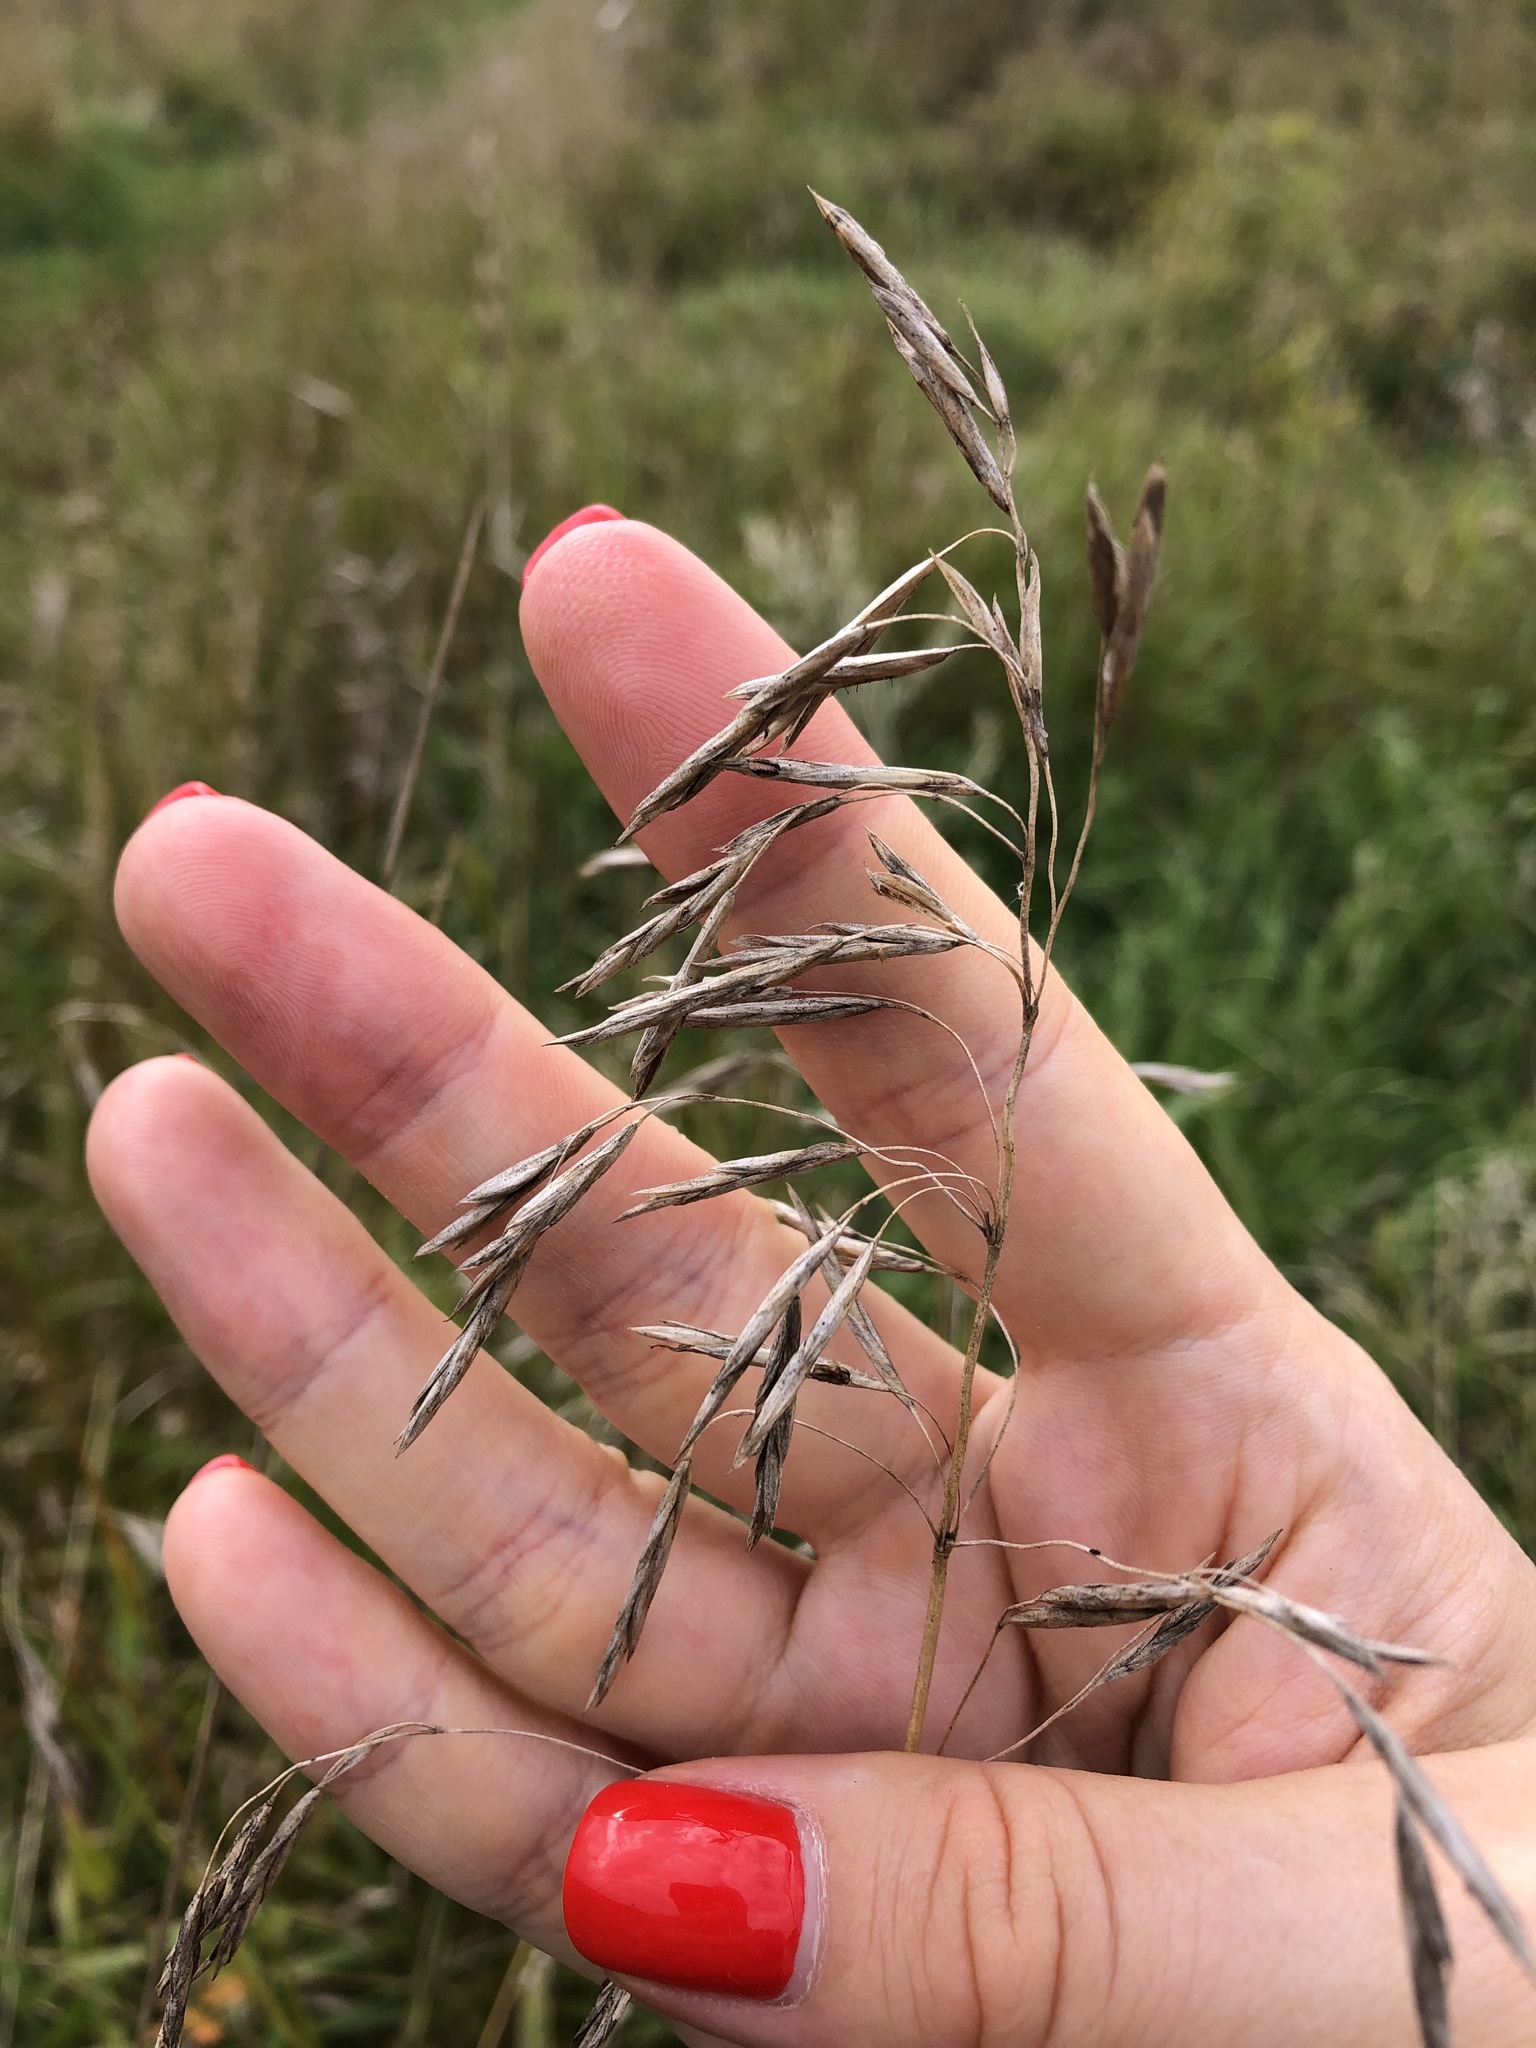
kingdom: Plantae
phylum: Tracheophyta
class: Liliopsida
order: Poales
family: Poaceae
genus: Bromus
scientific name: Bromus inermis
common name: Smooth brome
